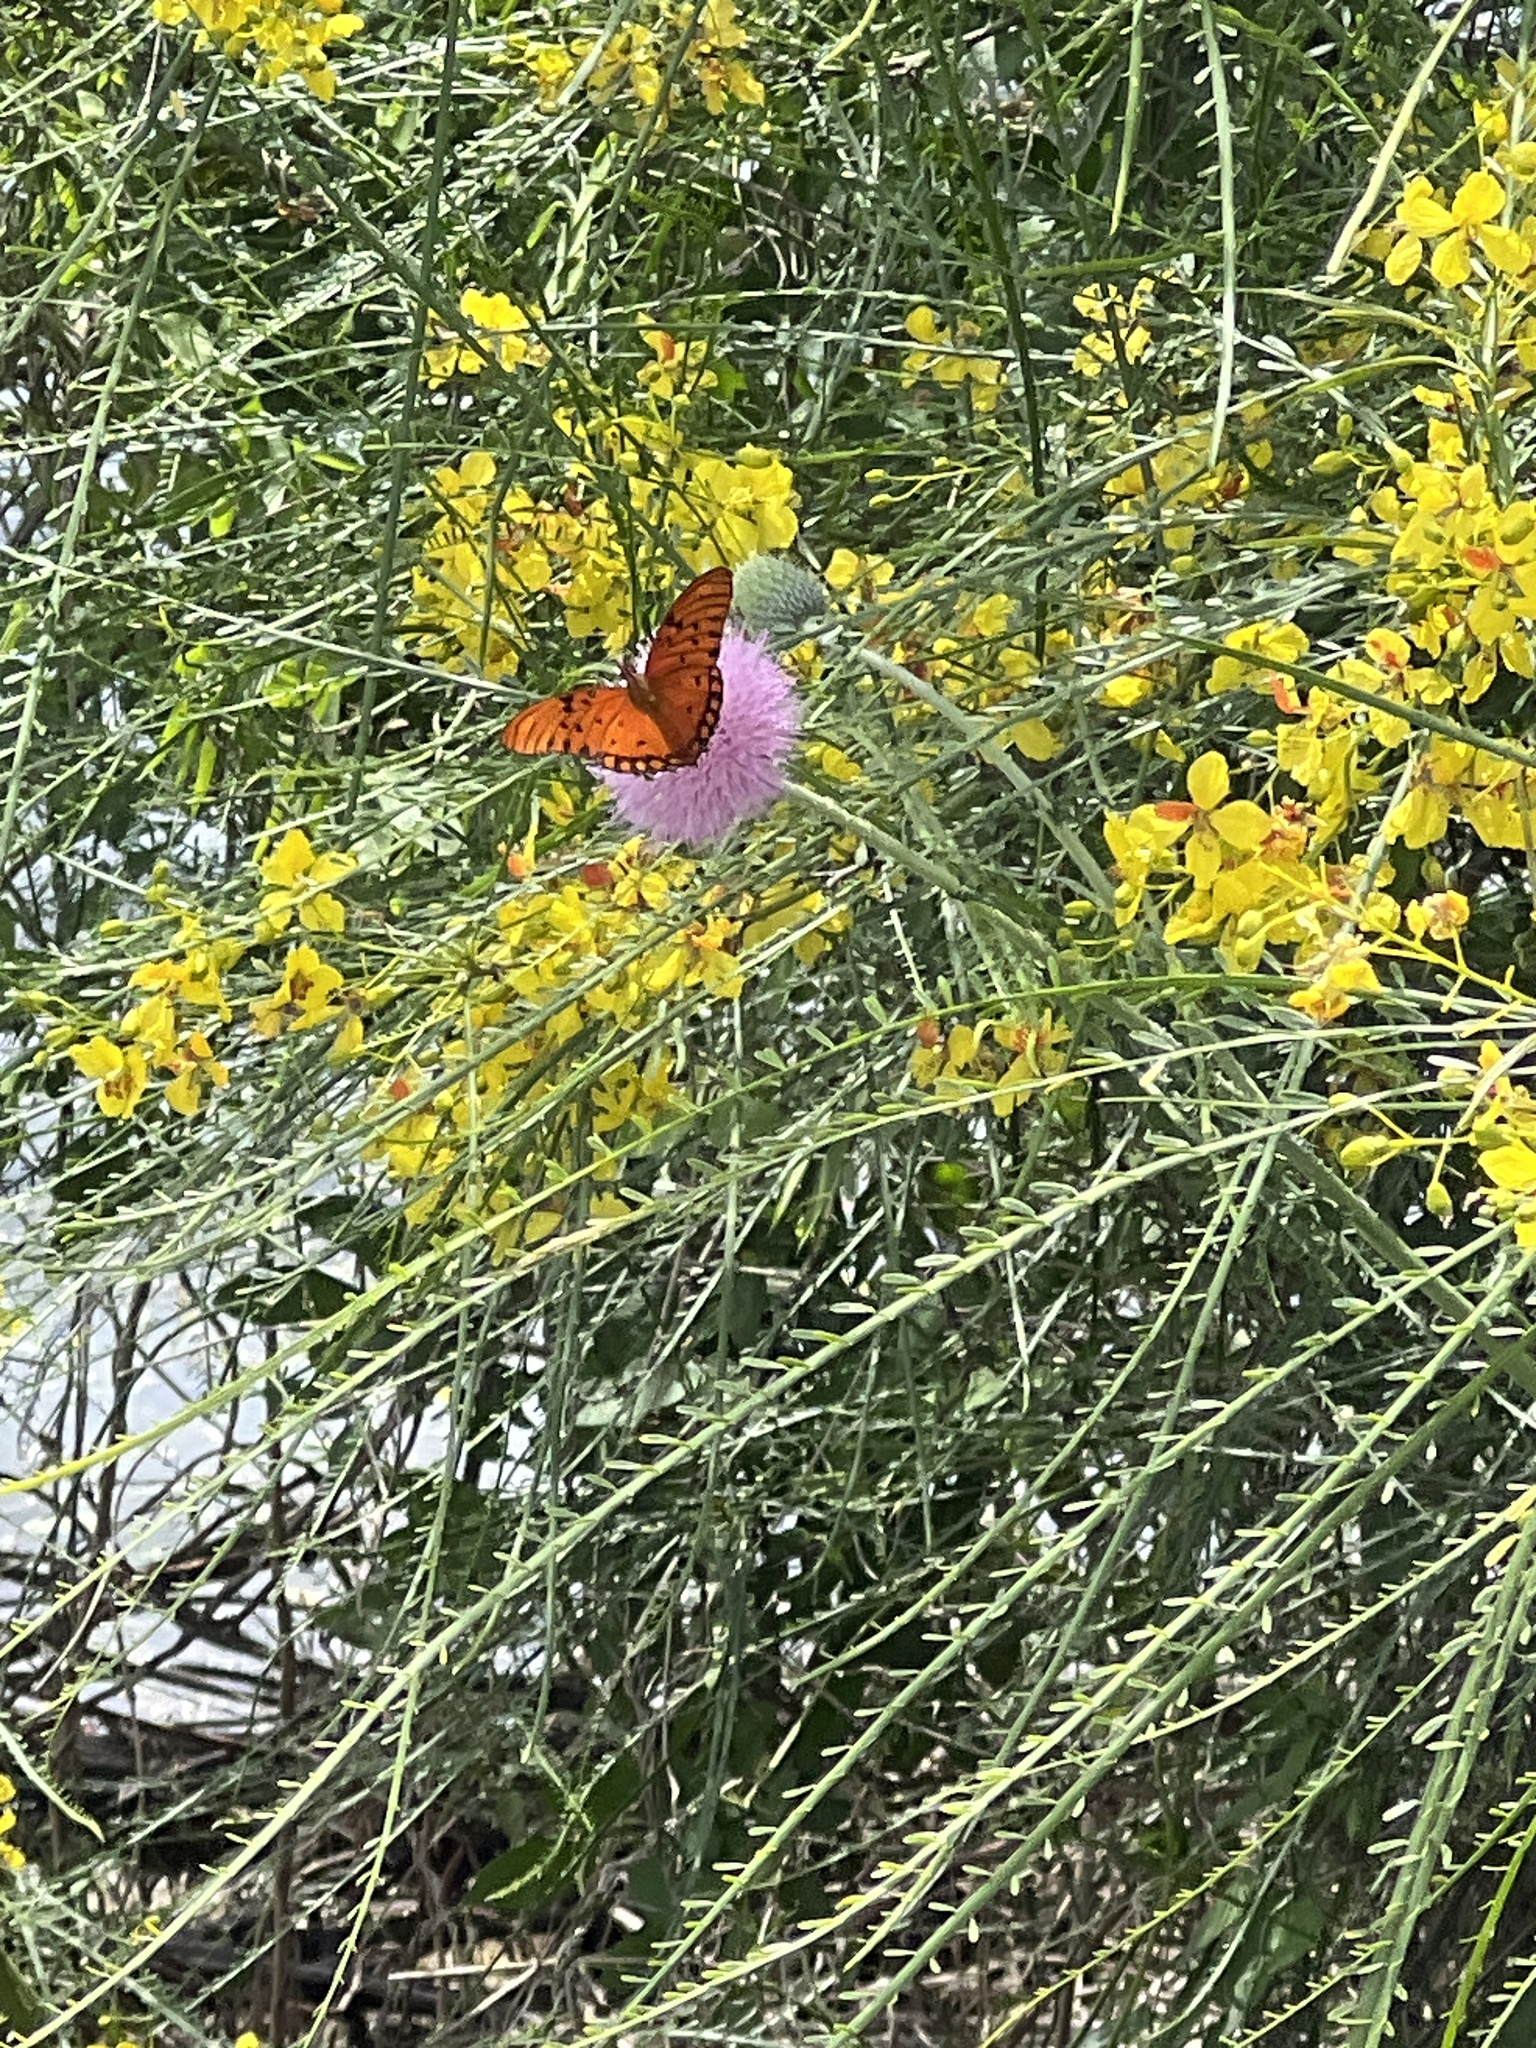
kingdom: Animalia
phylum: Arthropoda
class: Insecta
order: Lepidoptera
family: Nymphalidae
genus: Dione
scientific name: Dione vanillae
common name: Gulf fritillary
